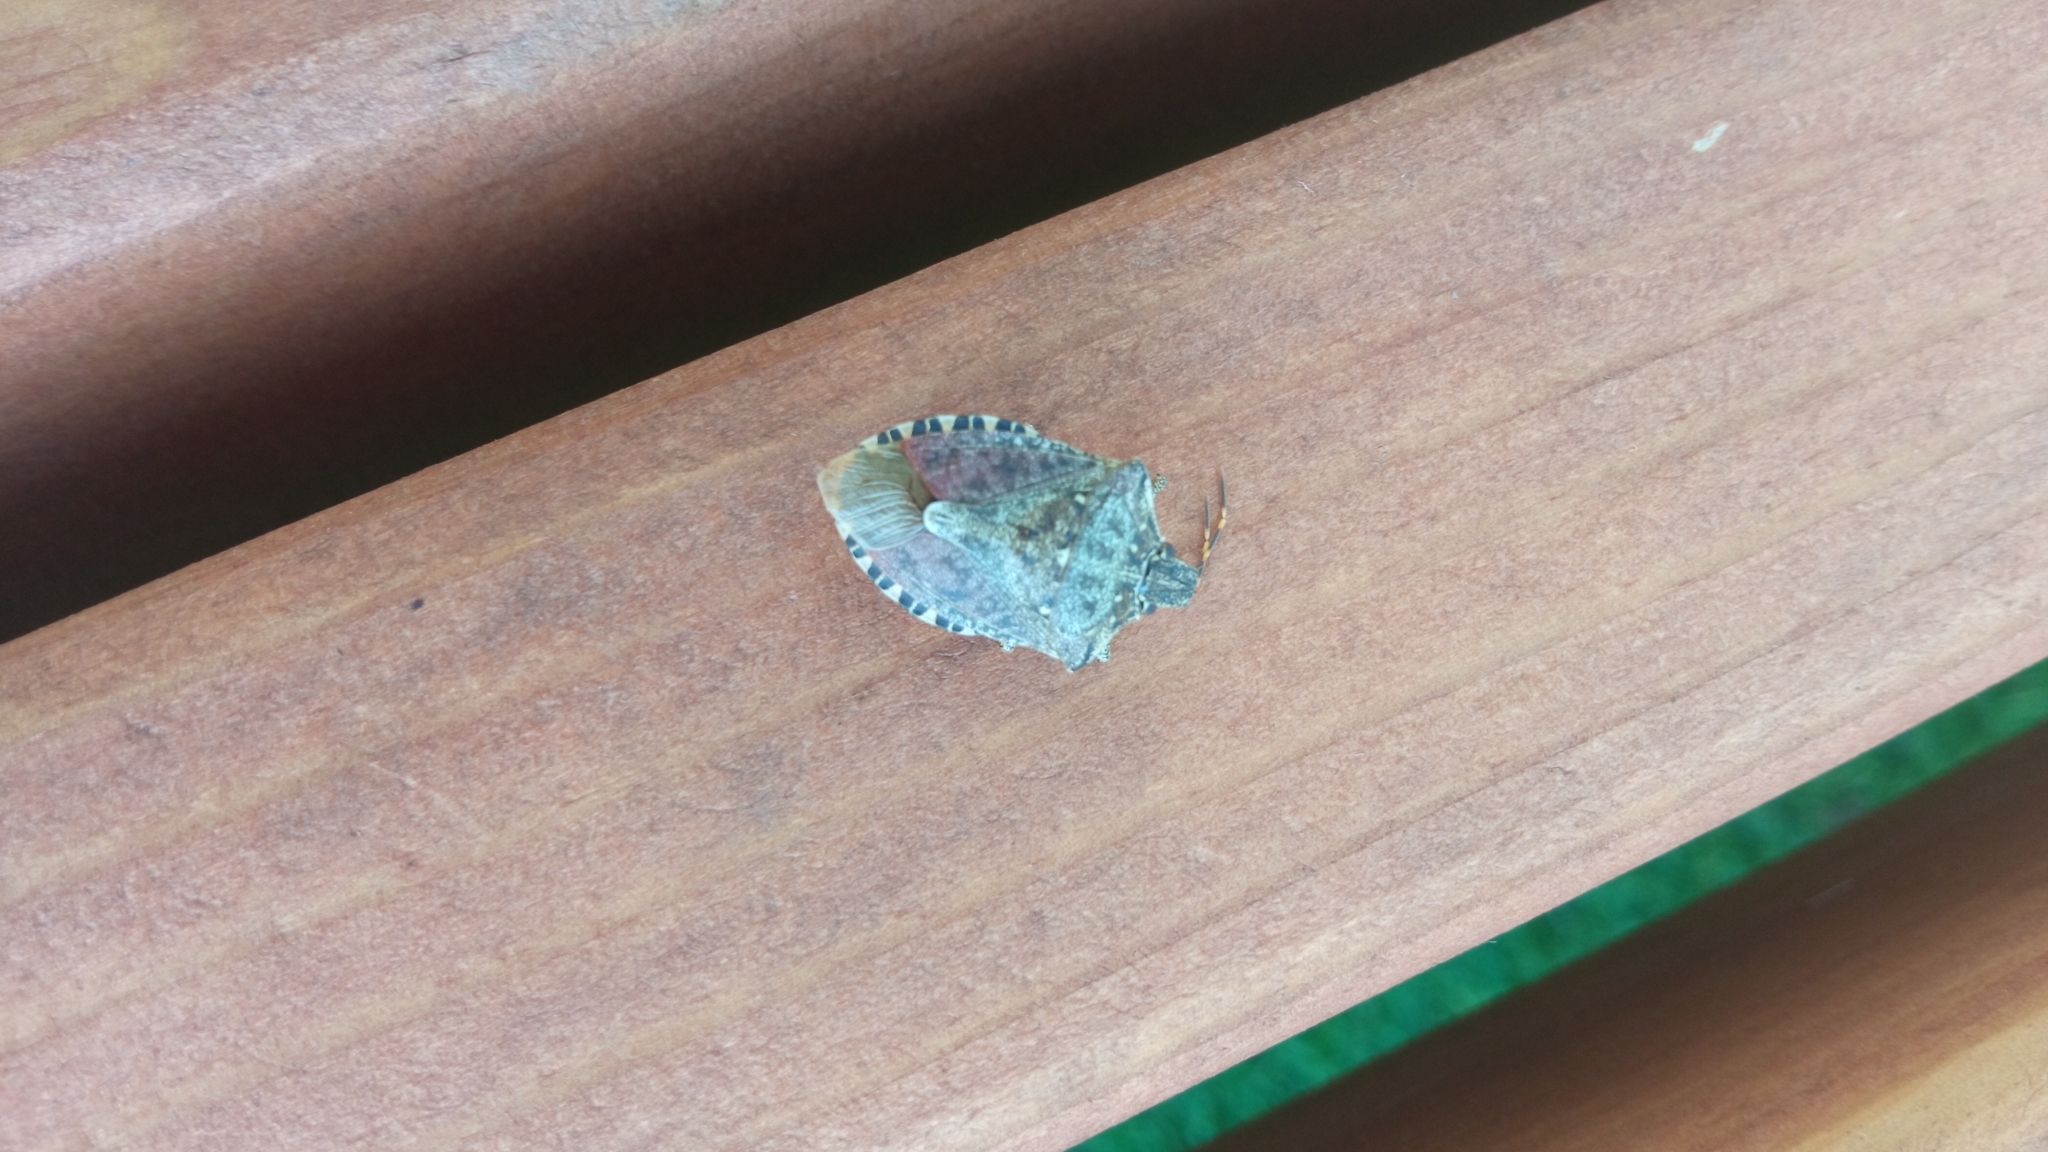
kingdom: Animalia
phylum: Arthropoda
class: Insecta
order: Hemiptera
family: Pentatomidae
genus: Halyomorpha
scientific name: Halyomorpha halys
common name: Brown marmorated stink bug
